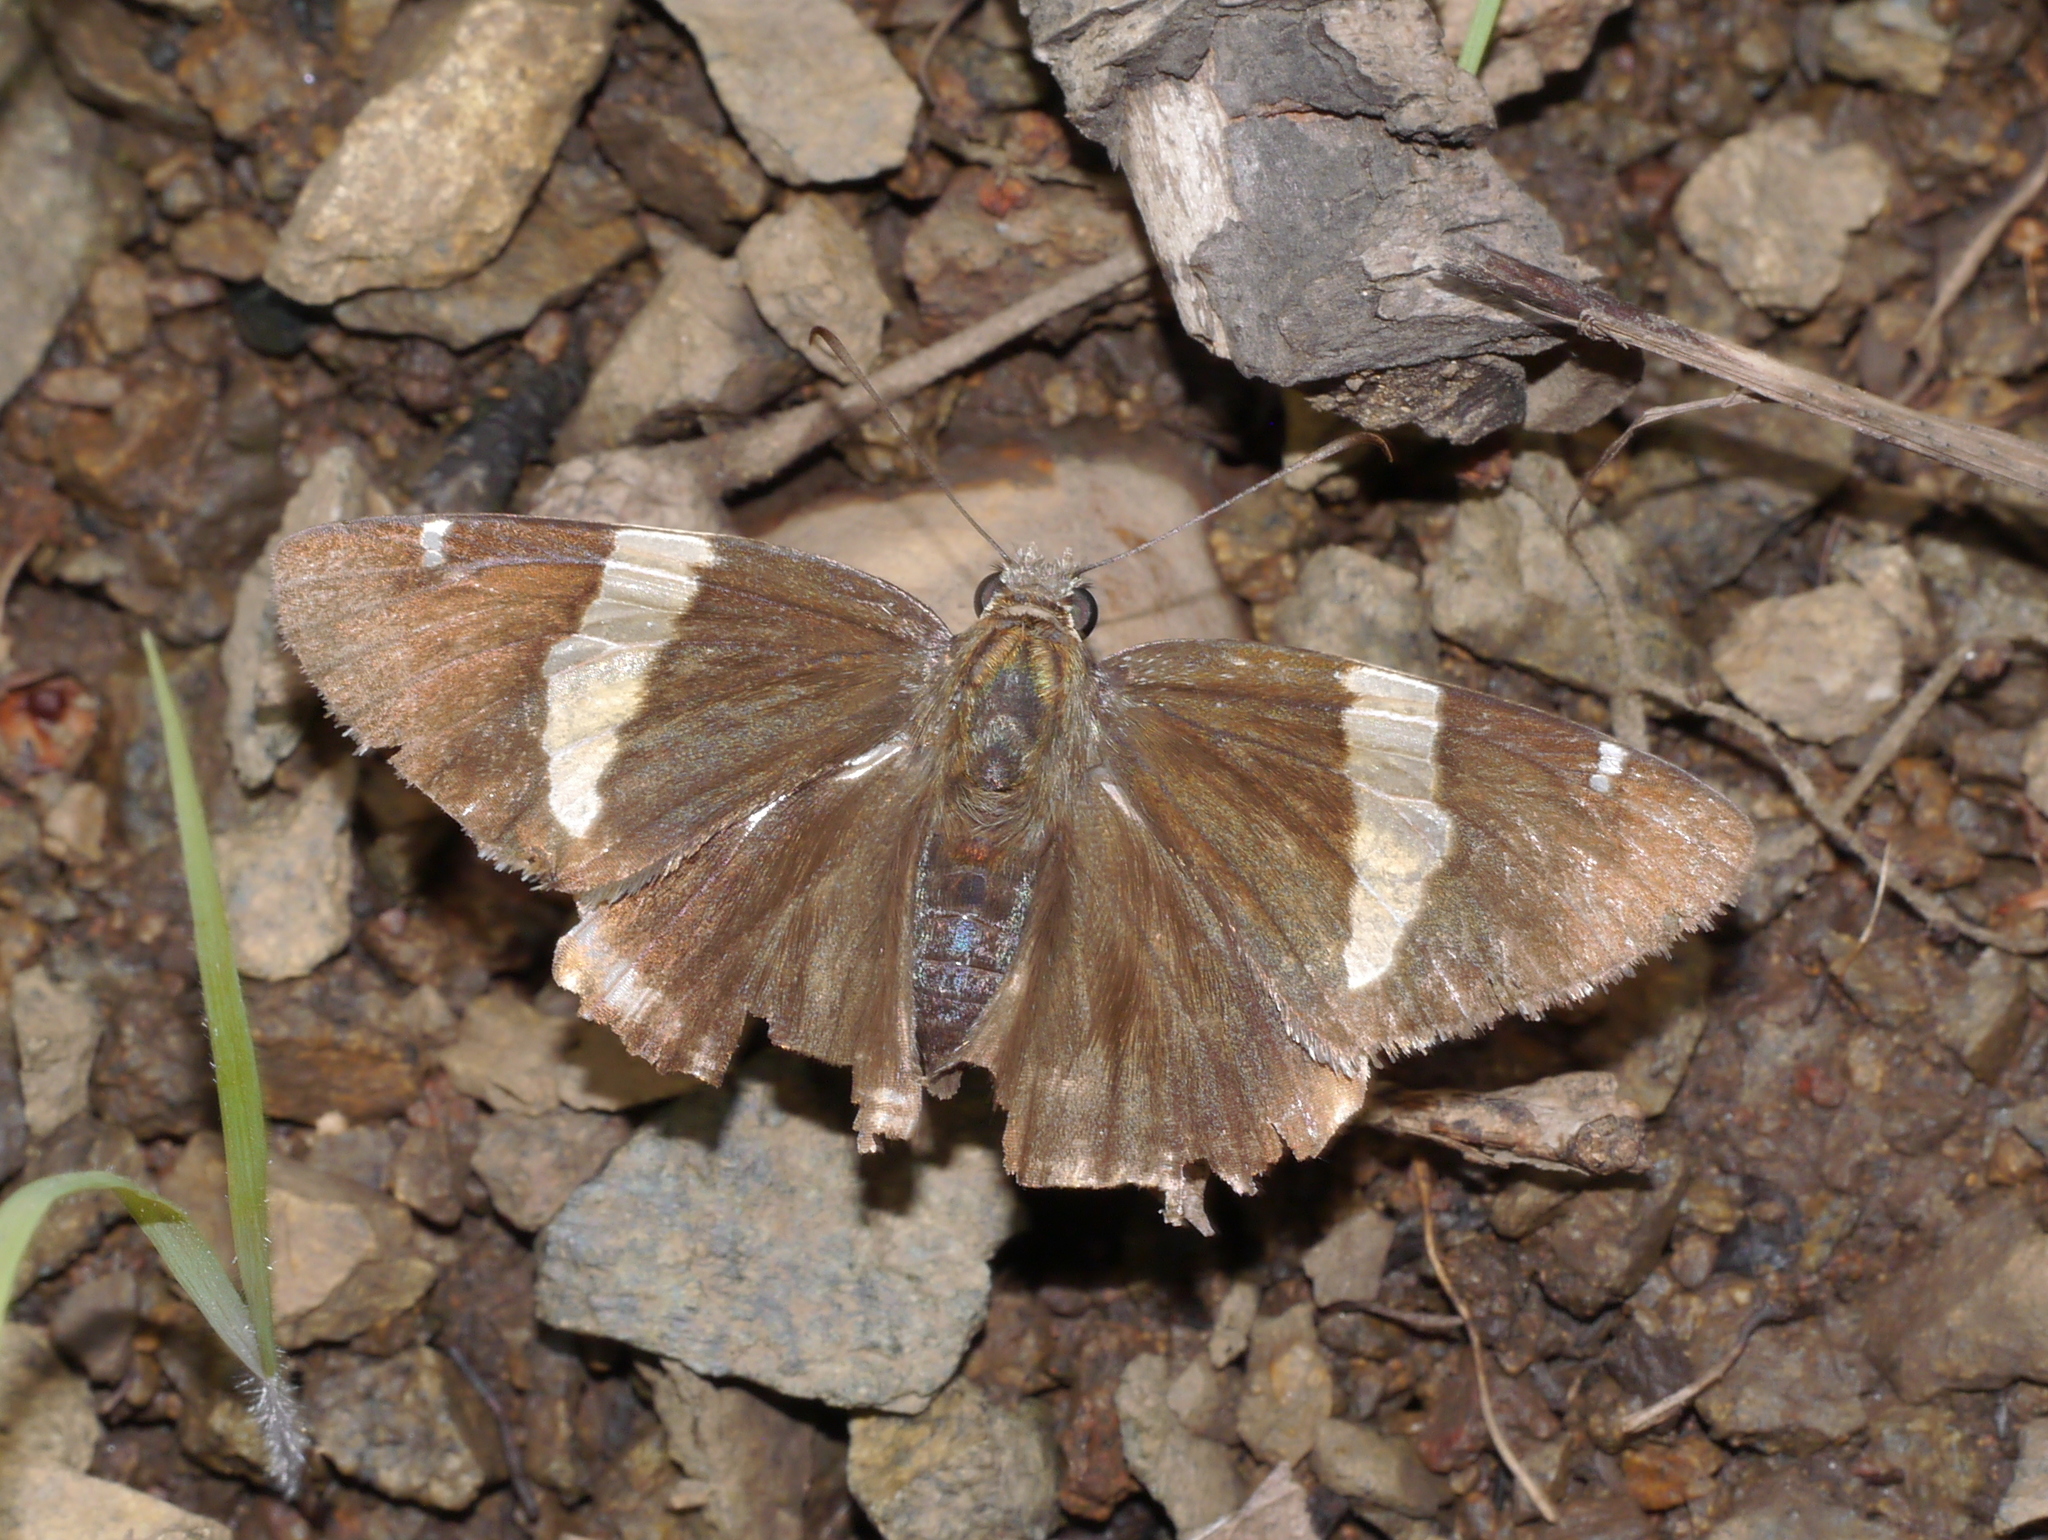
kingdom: Animalia
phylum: Arthropoda
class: Arachnida
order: Scorpiones
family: Bothriuridae
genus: Telegonus
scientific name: Telegonus cellus
